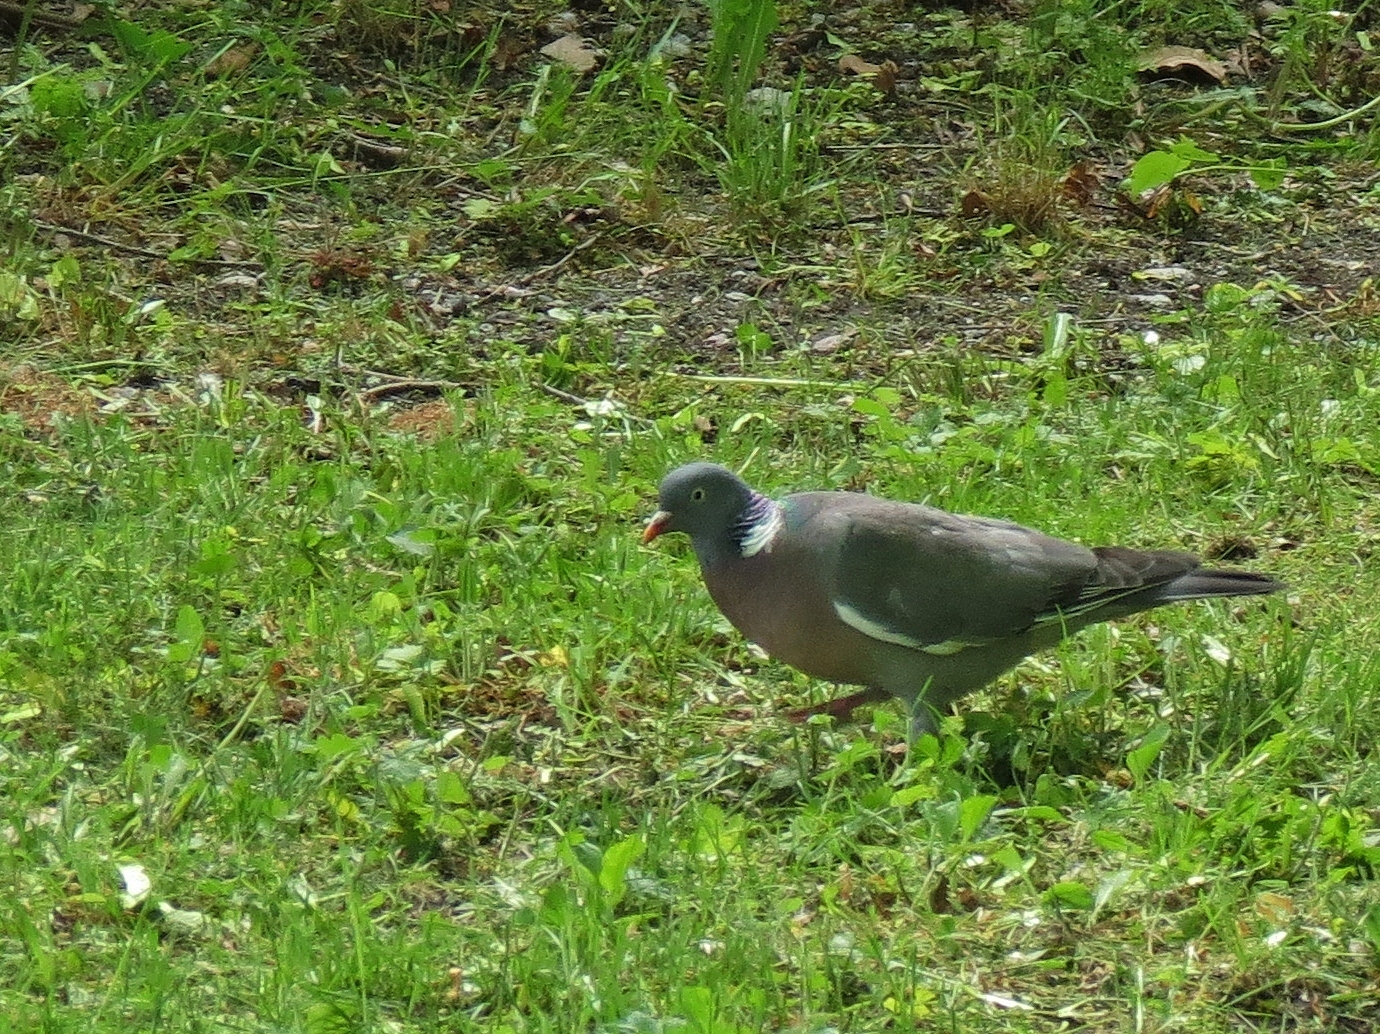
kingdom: Animalia
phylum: Chordata
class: Aves
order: Columbiformes
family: Columbidae
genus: Columba
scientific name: Columba palumbus
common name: Common wood pigeon
